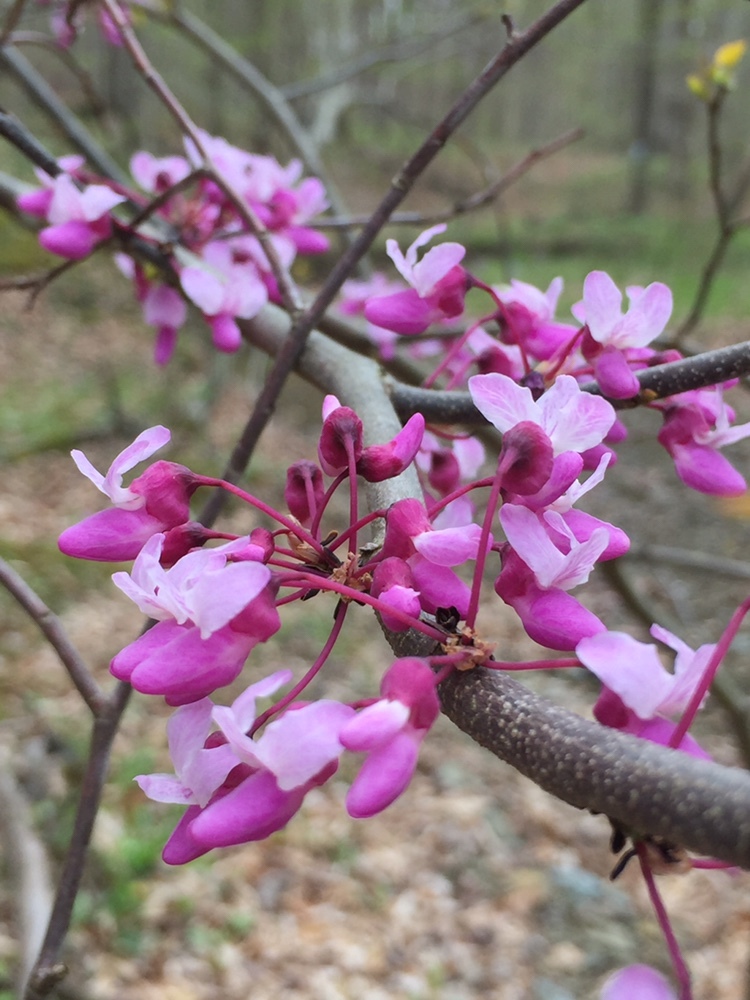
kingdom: Plantae
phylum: Tracheophyta
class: Magnoliopsida
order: Fabales
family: Fabaceae
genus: Cercis
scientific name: Cercis canadensis
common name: Eastern redbud
